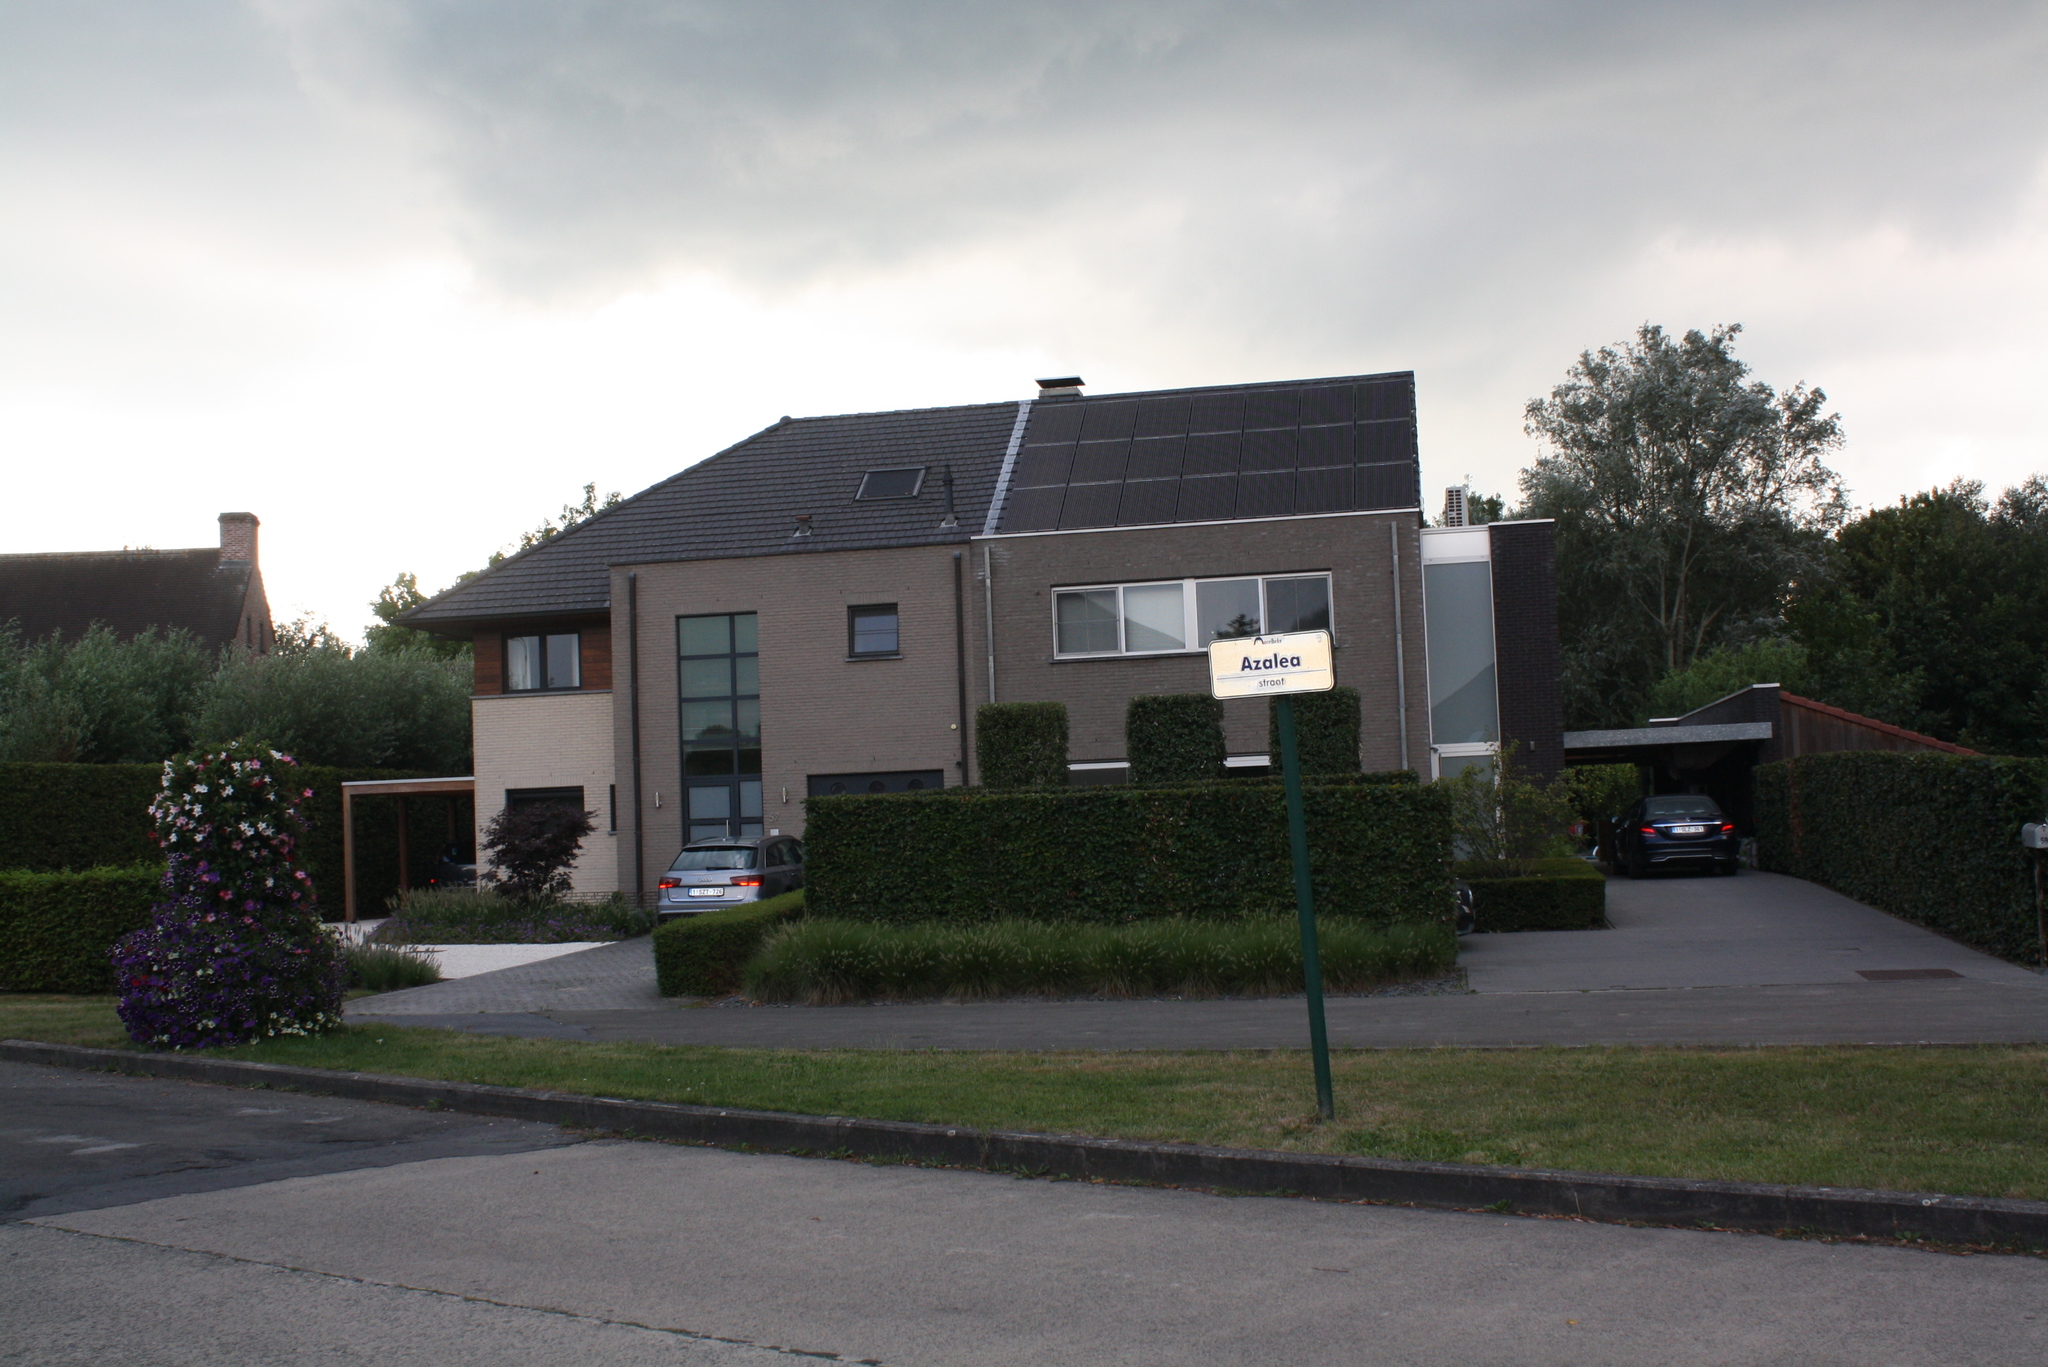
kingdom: Animalia
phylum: Arthropoda
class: Insecta
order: Hymenoptera
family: Vespidae
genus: Vespa
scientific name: Vespa velutina
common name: Asian hornet
